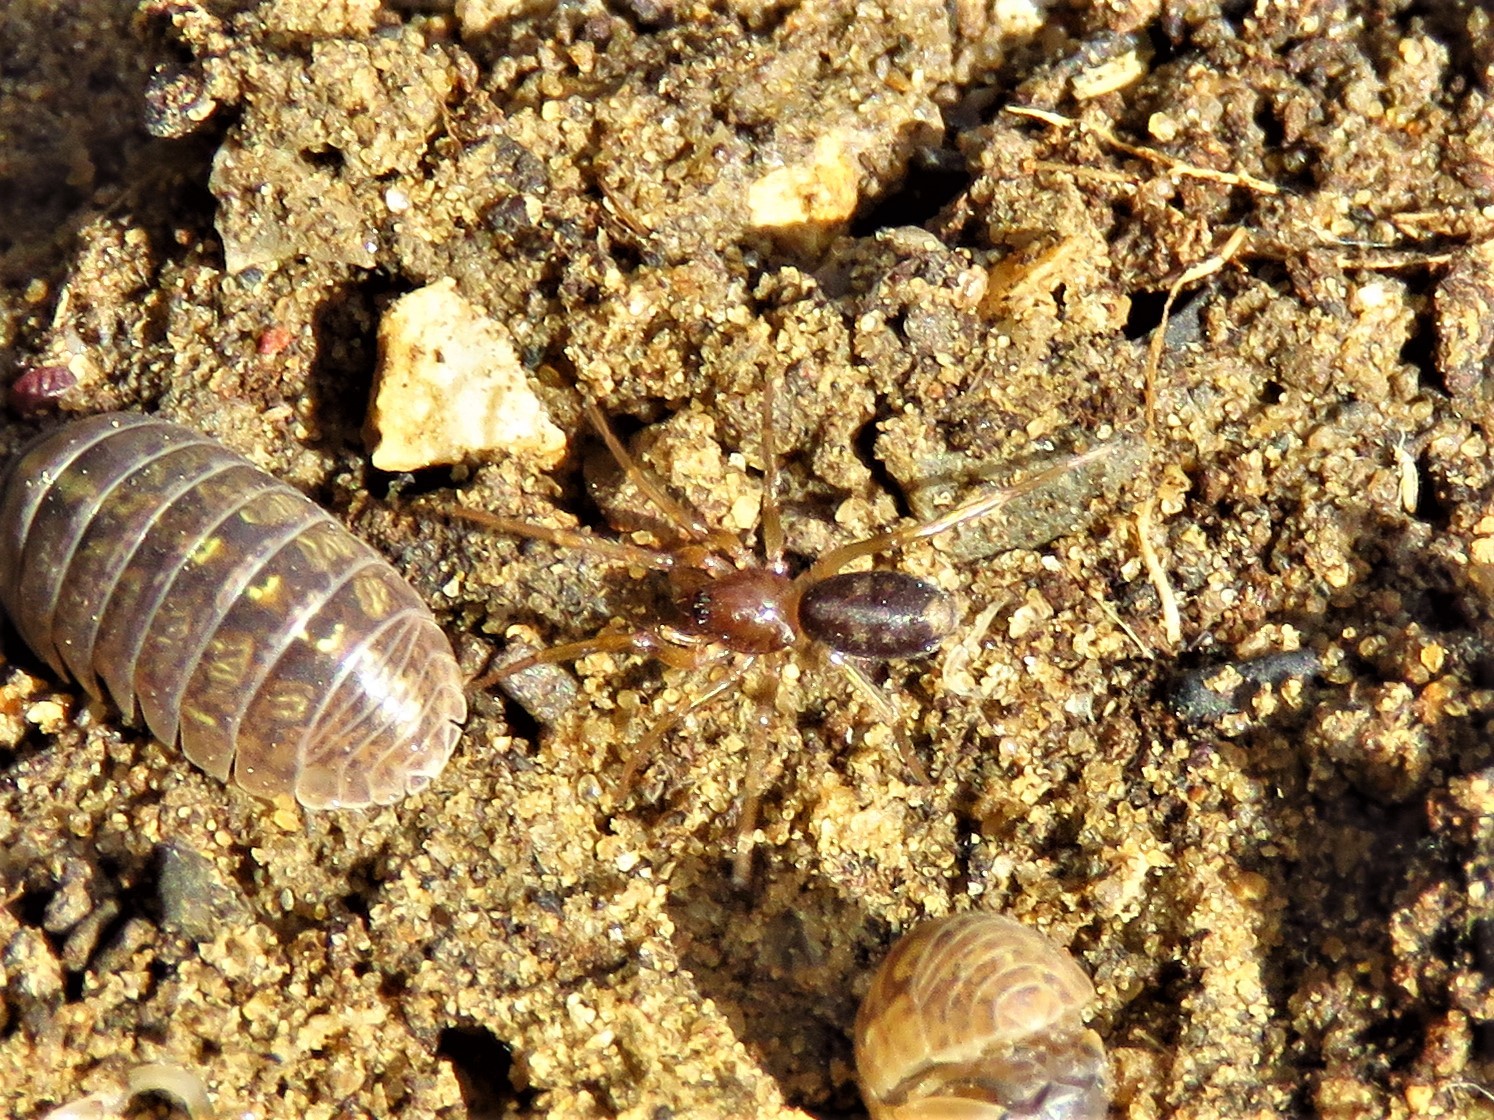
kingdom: Animalia
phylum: Arthropoda
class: Arachnida
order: Araneae
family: Corinnidae
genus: Falconina
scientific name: Falconina gracilis
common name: Antmimic spider
